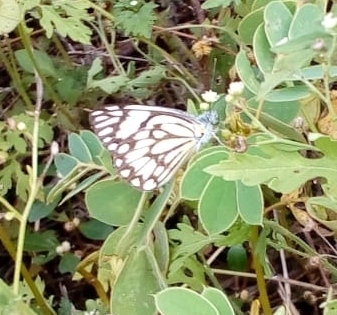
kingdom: Animalia
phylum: Arthropoda
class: Insecta
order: Lepidoptera
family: Pieridae
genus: Belenois
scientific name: Belenois aurota
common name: Brown-veined white
